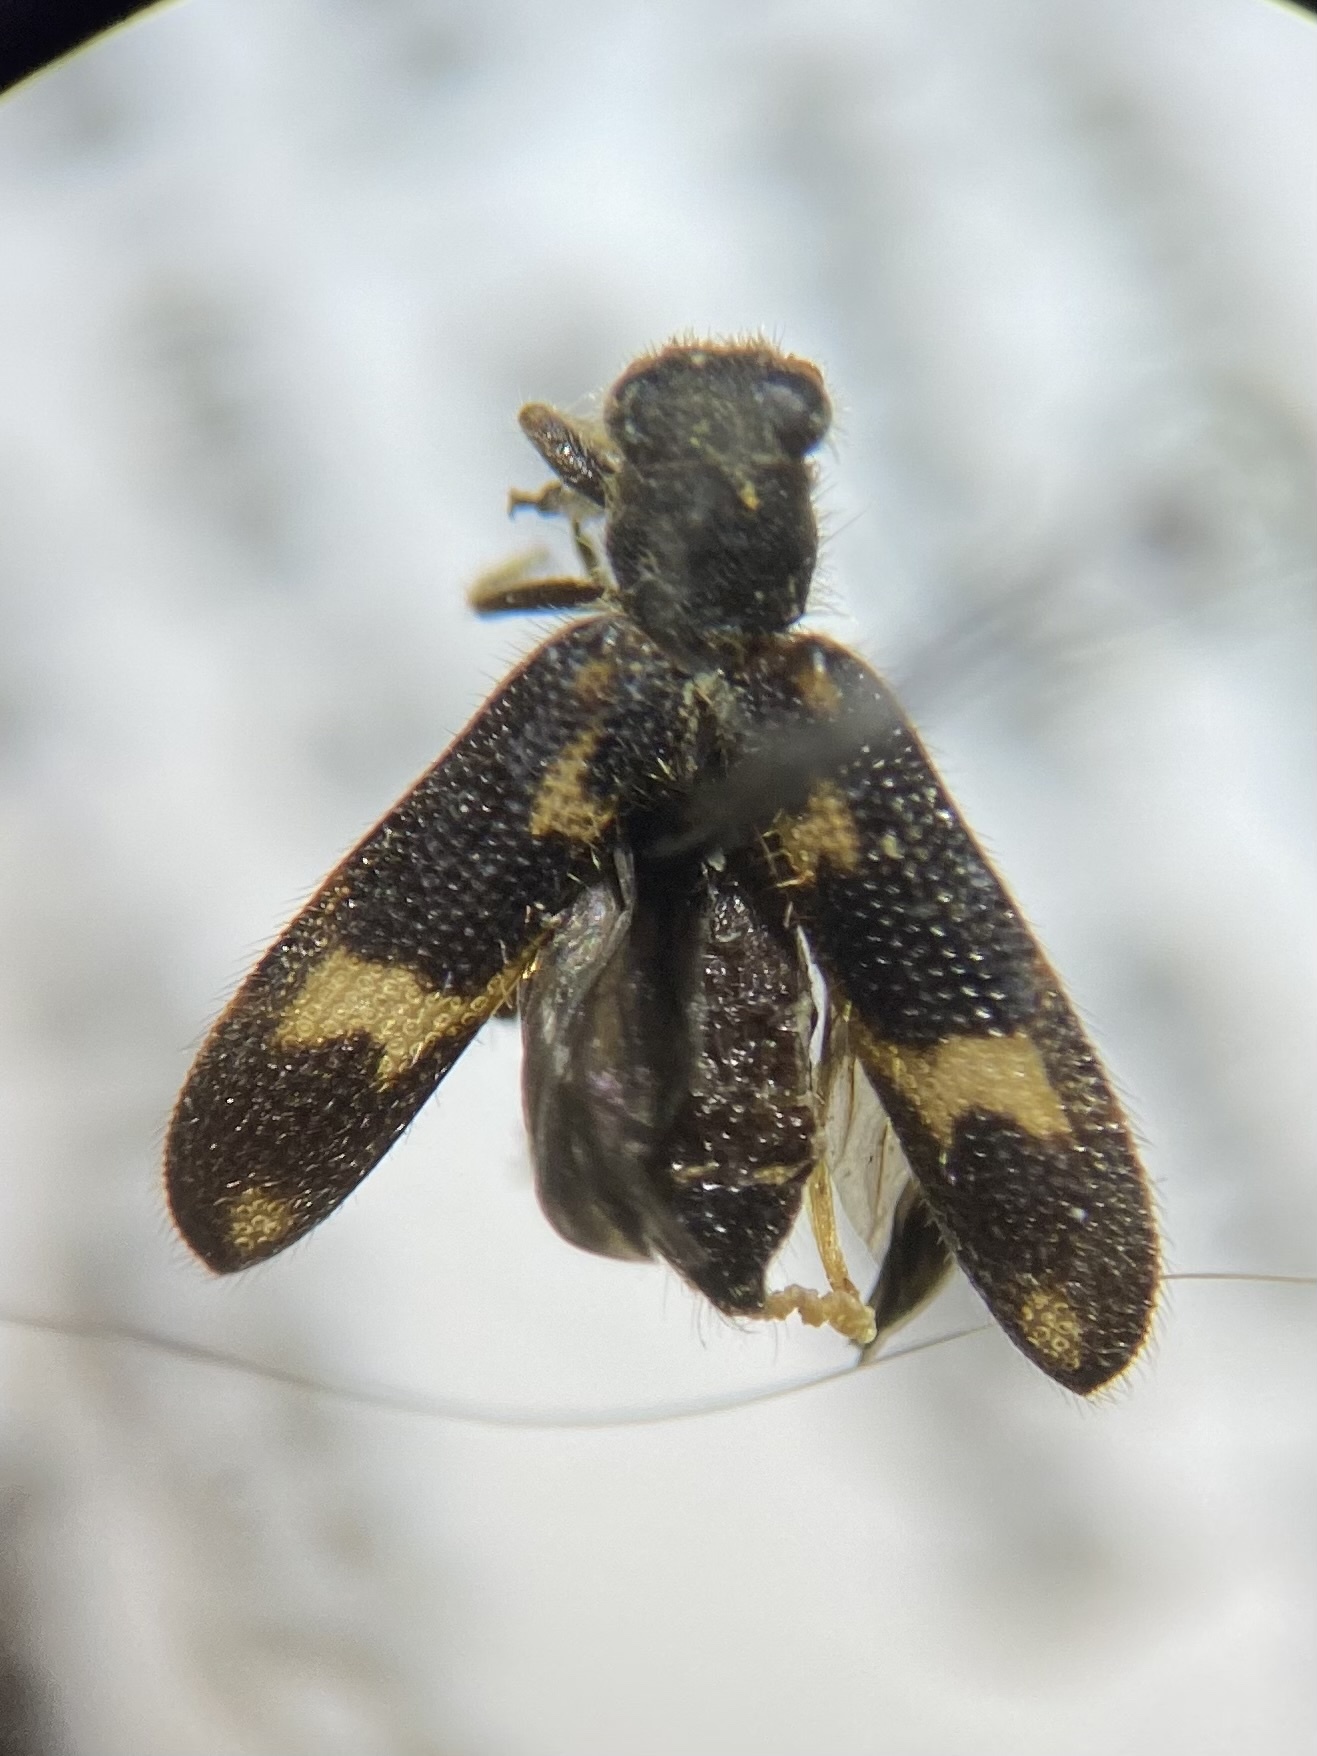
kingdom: Animalia
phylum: Arthropoda
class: Insecta
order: Coleoptera
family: Cleridae
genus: Madoniella
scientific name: Madoniella dislocata
